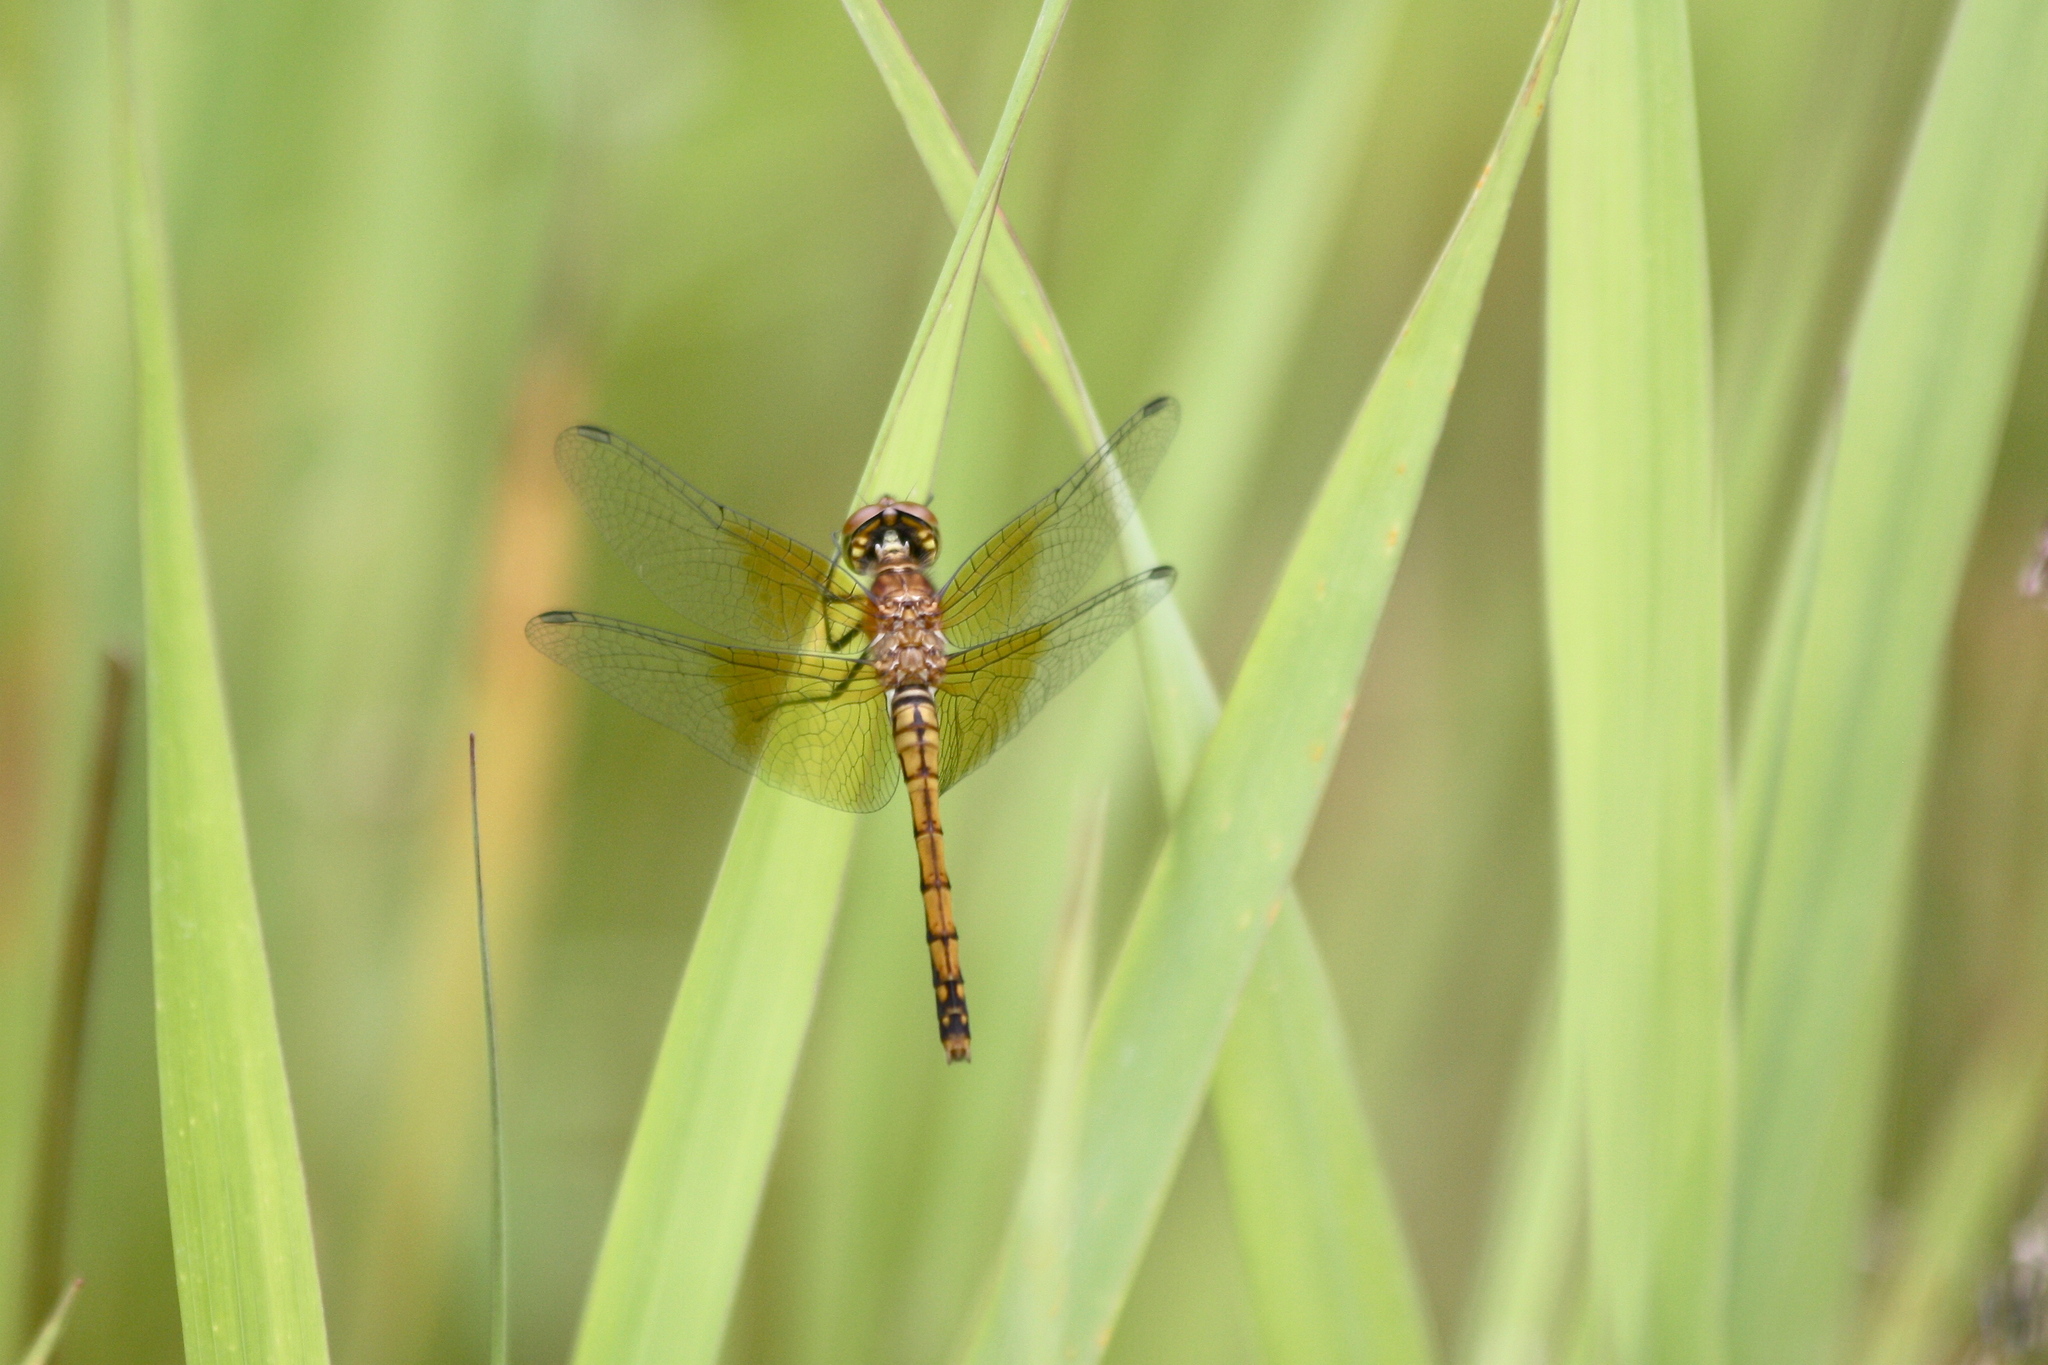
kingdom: Animalia
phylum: Arthropoda
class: Insecta
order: Odonata
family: Libellulidae
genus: Sympetrum
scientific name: Sympetrum semicinctum
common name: Band-winged meadowhawk
